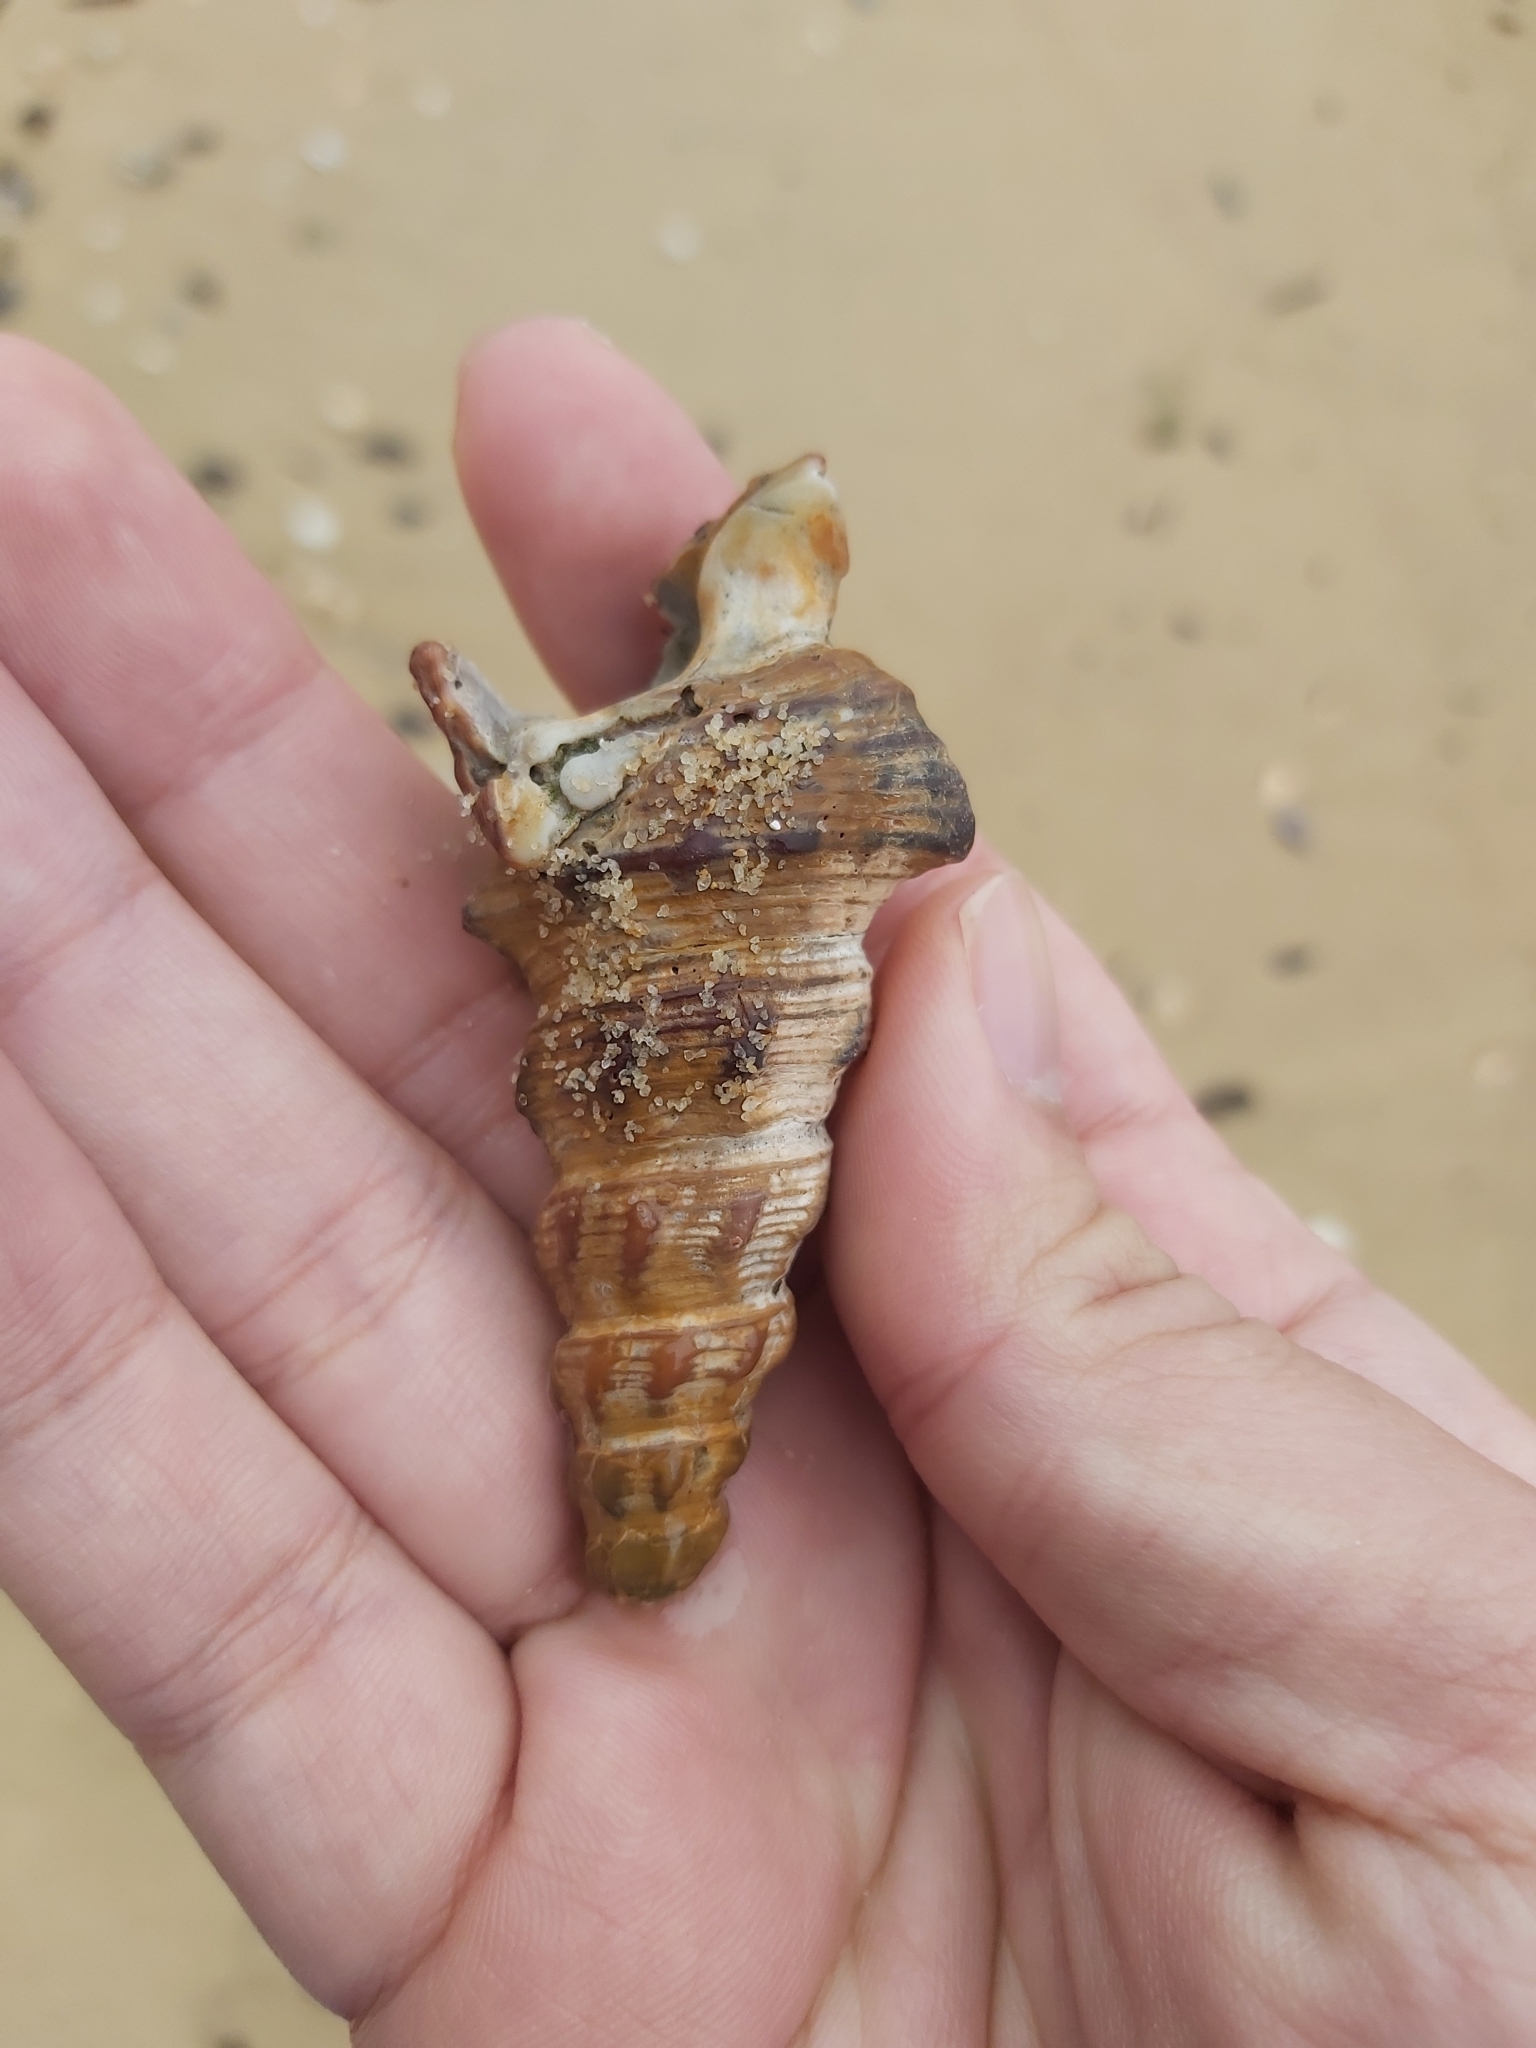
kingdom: Animalia
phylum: Mollusca
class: Gastropoda
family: Batillariidae
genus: Pyrazus
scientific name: Pyrazus ebeninus
